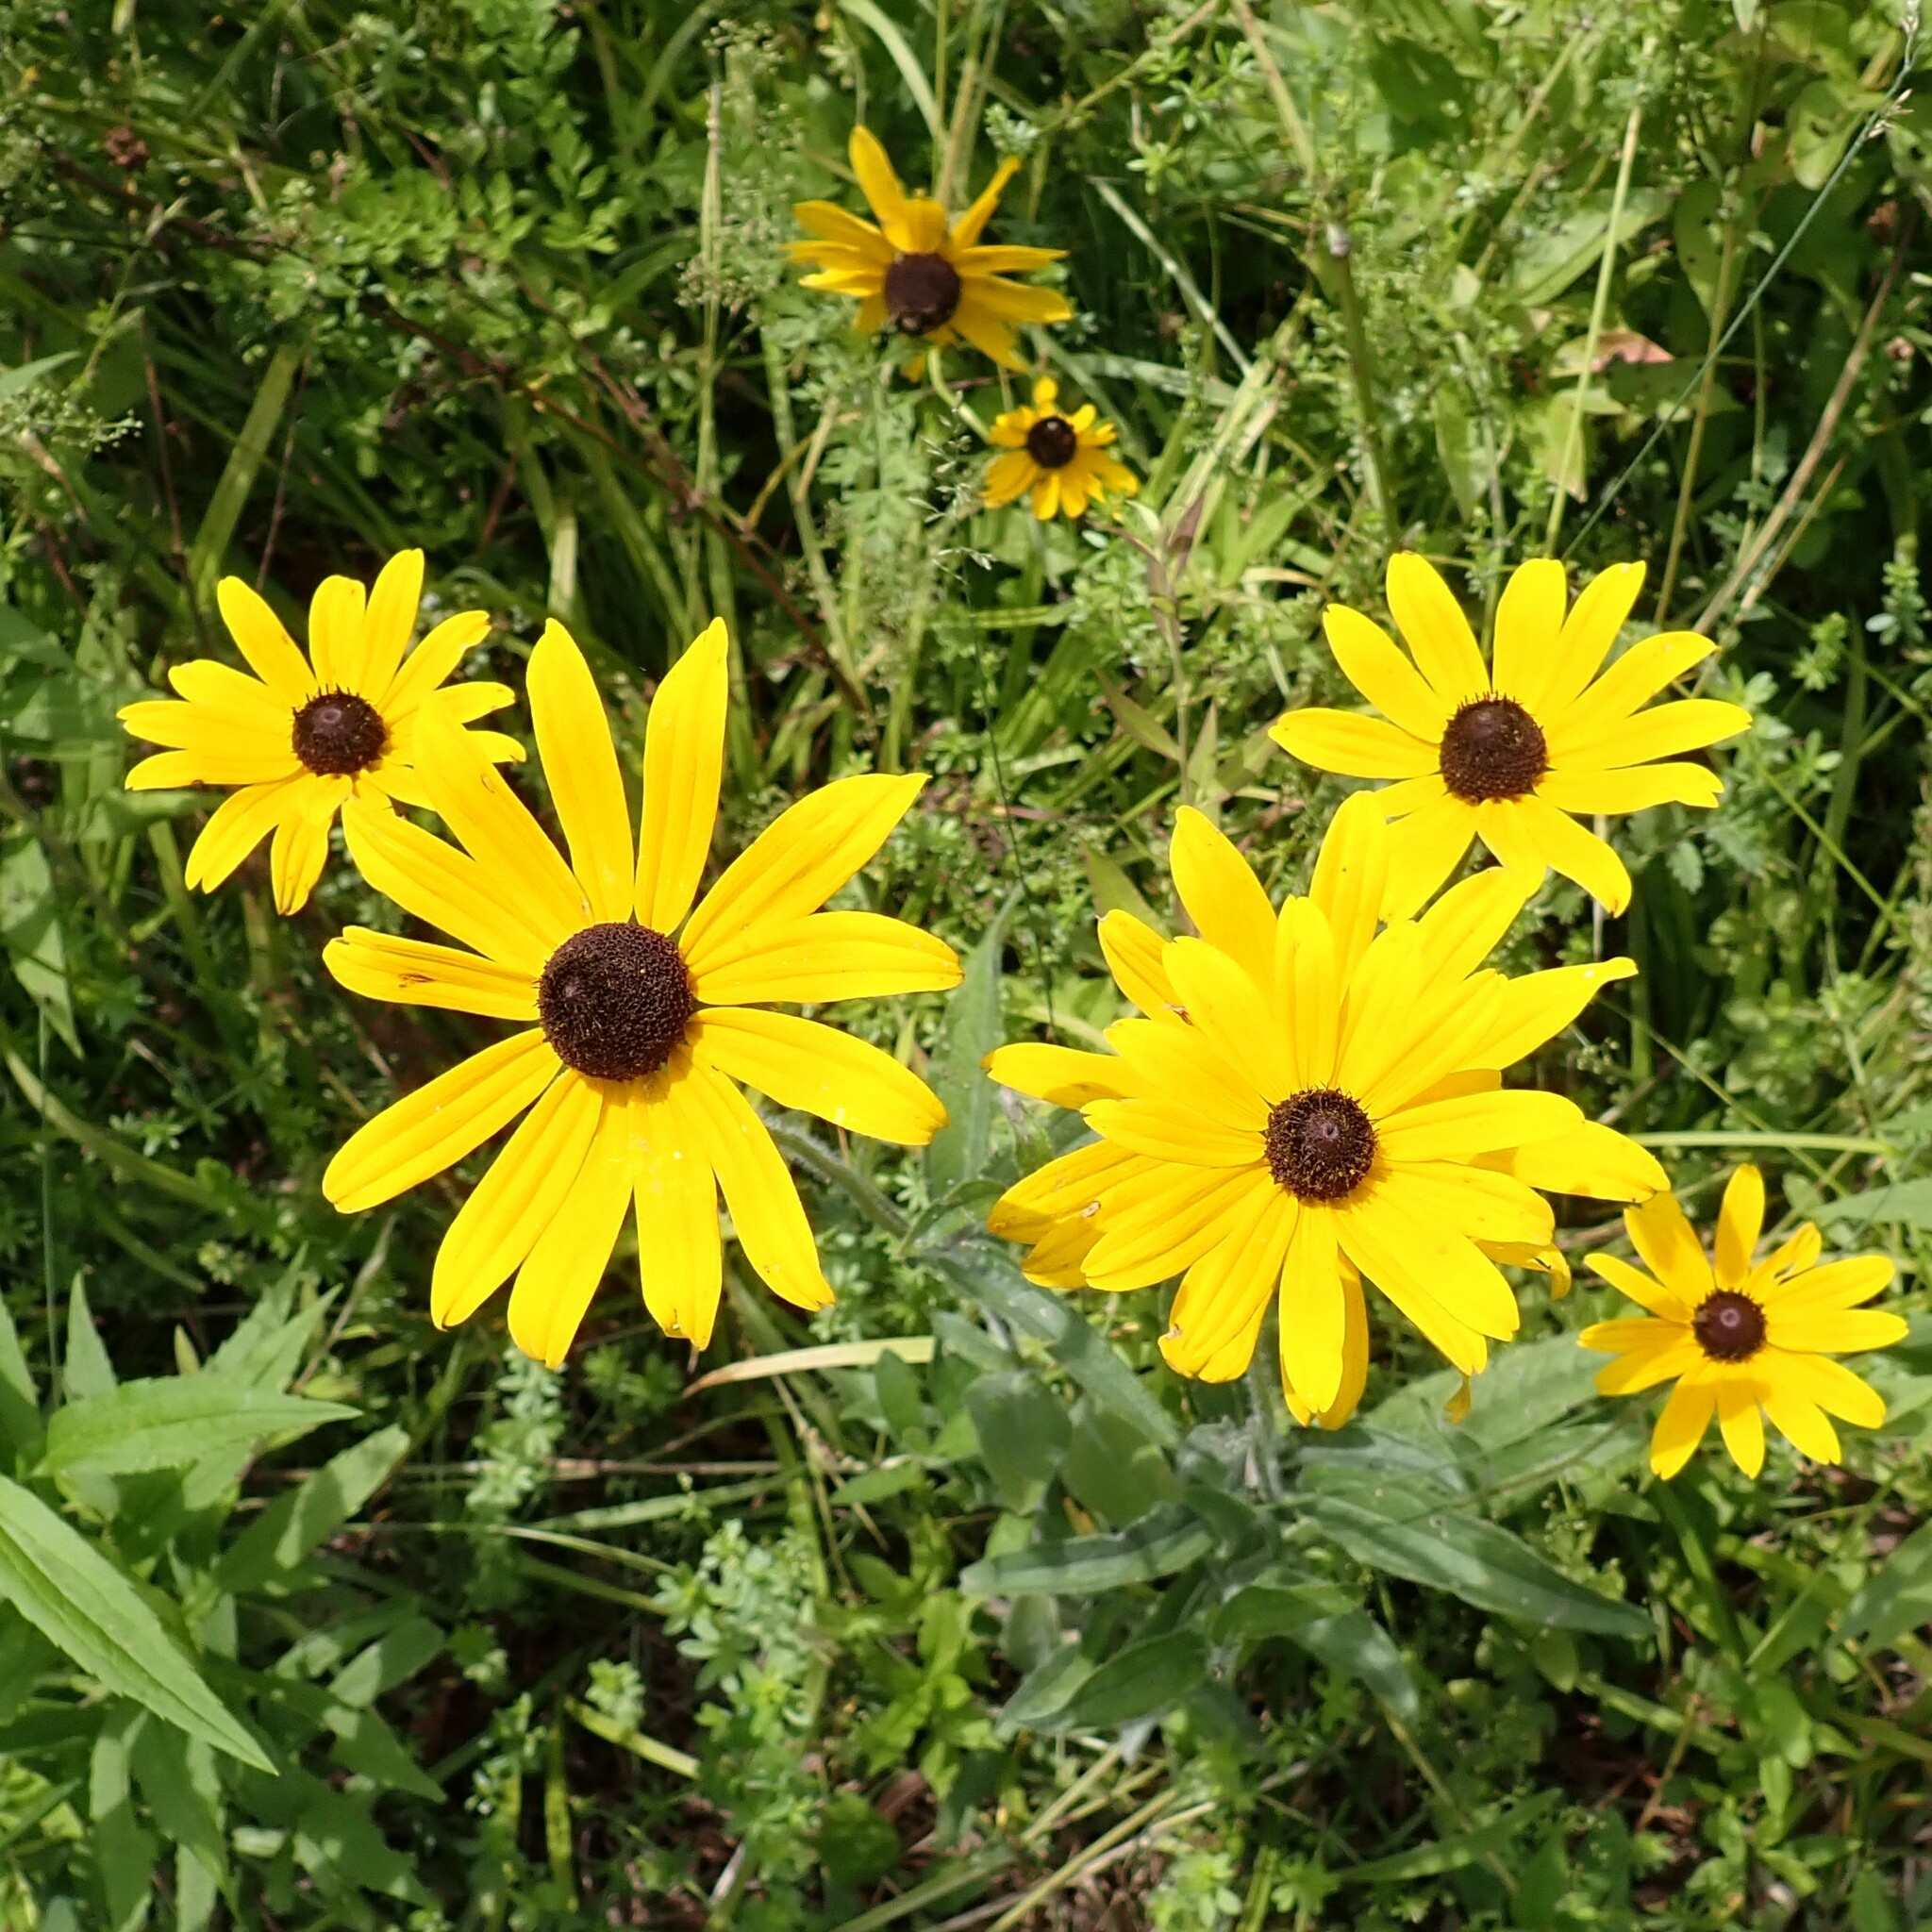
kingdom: Plantae
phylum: Tracheophyta
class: Magnoliopsida
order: Asterales
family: Asteraceae
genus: Rudbeckia
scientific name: Rudbeckia hirta
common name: Black-eyed-susan
